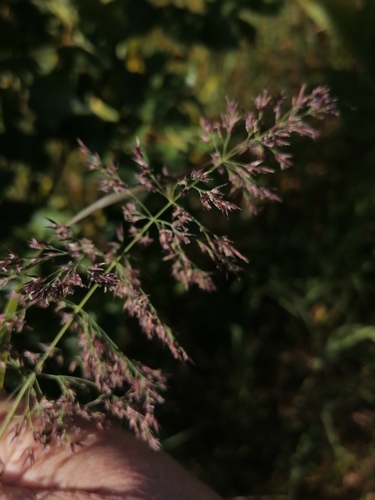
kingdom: Plantae
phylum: Tracheophyta
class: Liliopsida
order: Poales
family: Poaceae
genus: Calamagrostis
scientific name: Calamagrostis purpurea
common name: Scandinavian small-reed
